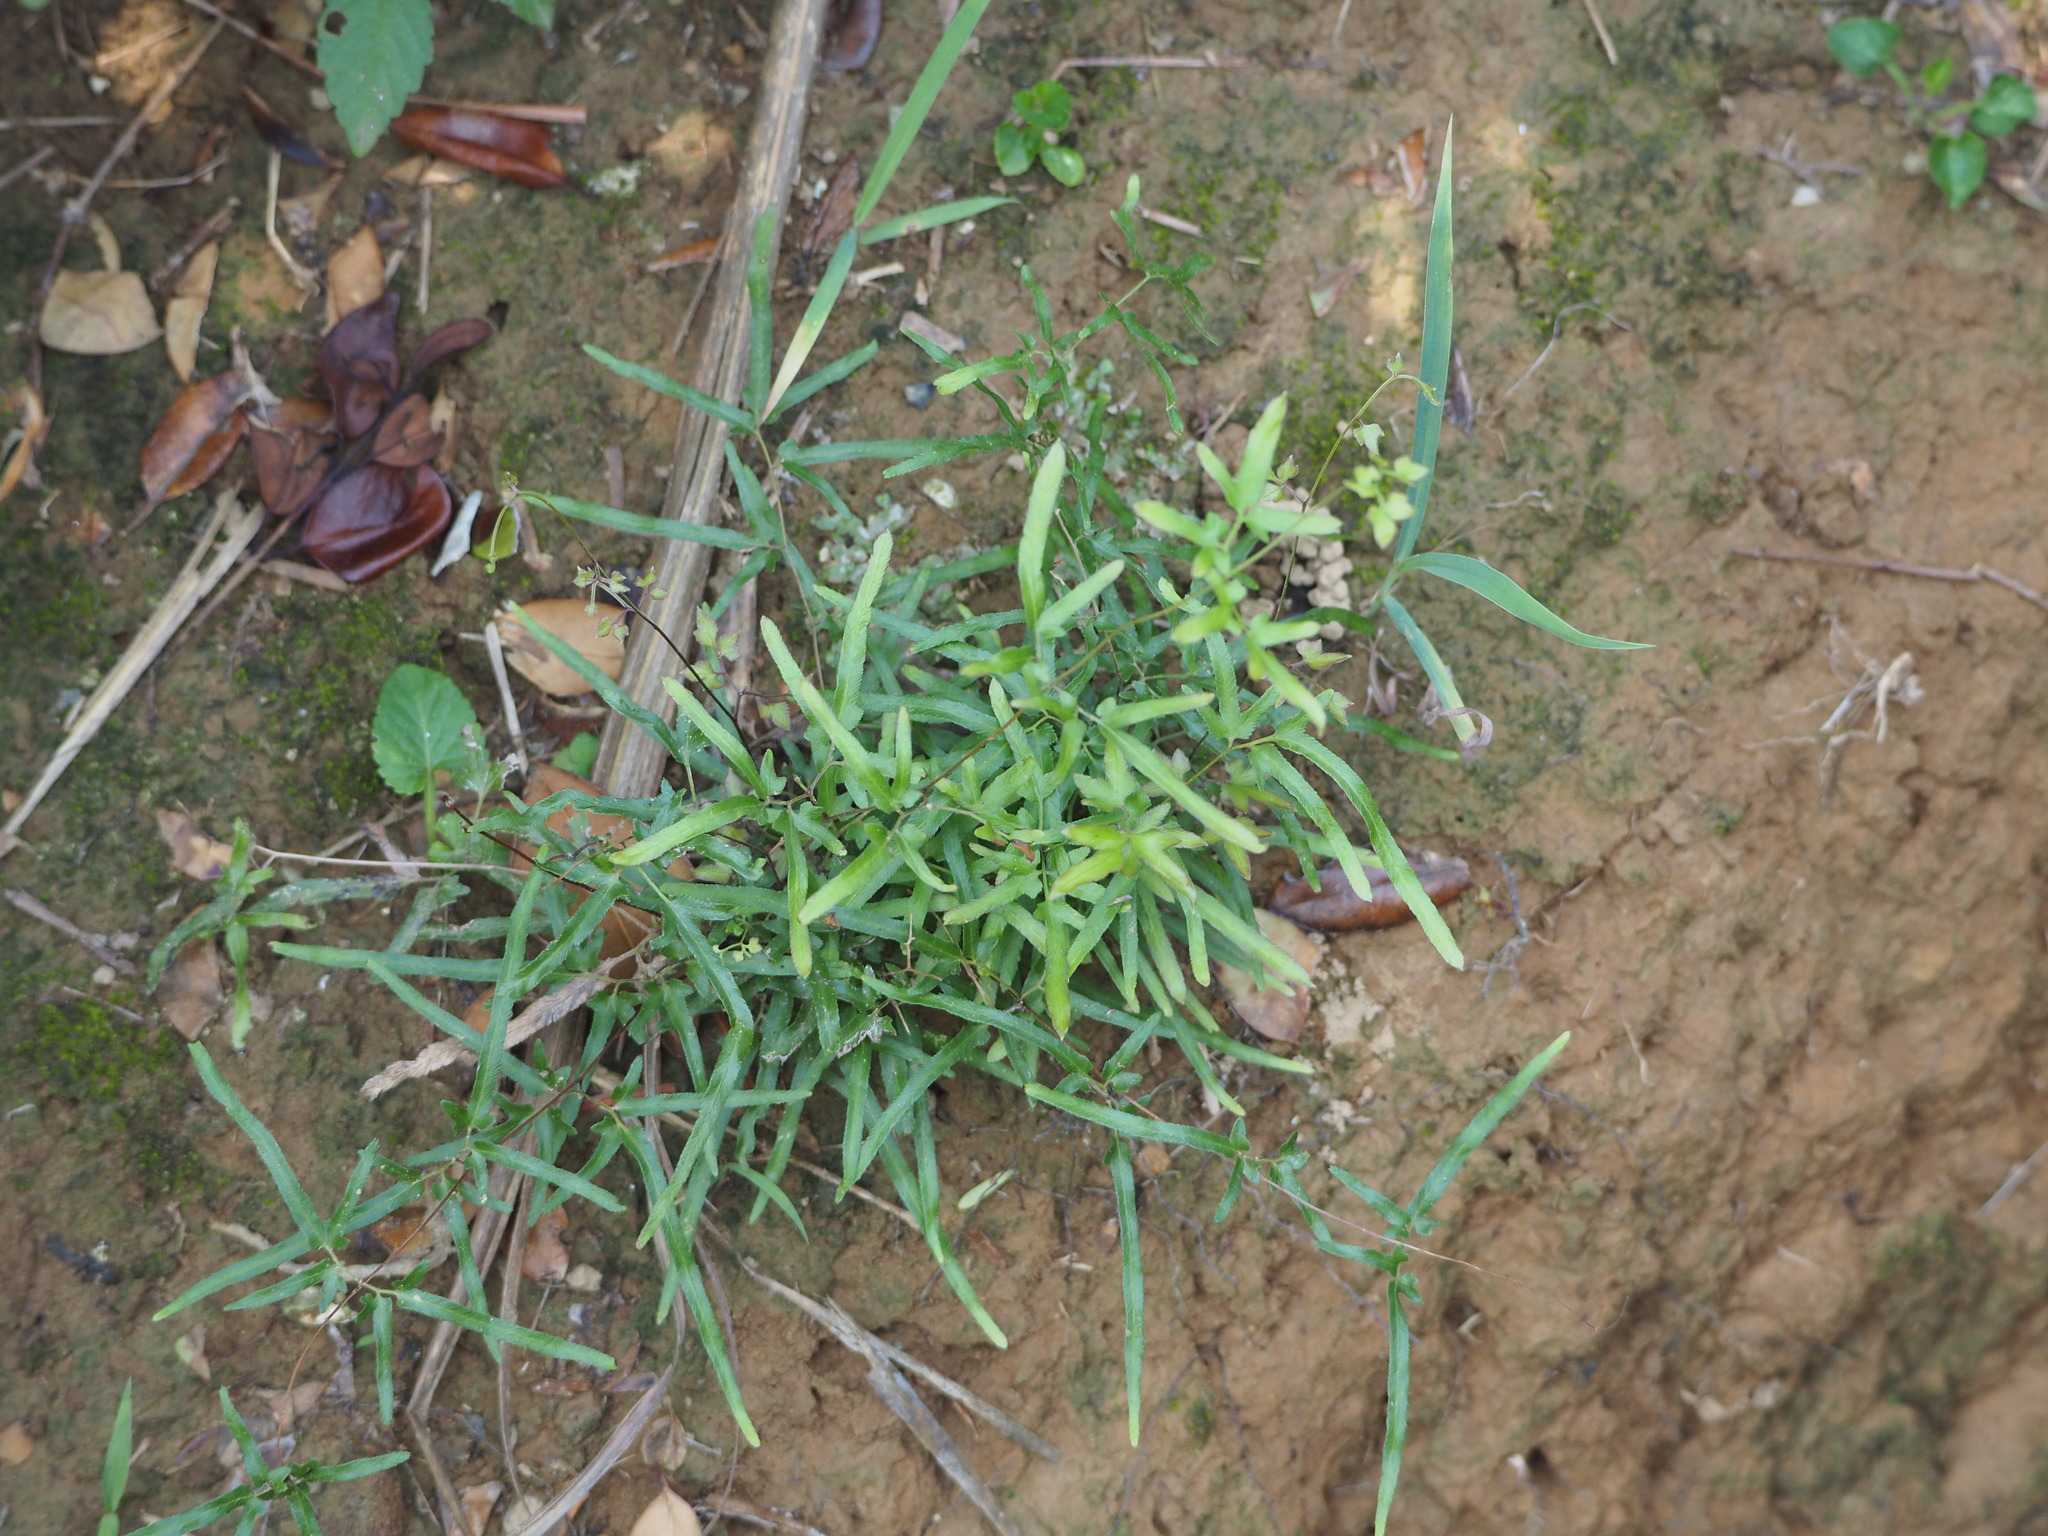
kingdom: Plantae
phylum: Tracheophyta
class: Polypodiopsida
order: Schizaeales
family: Lygodiaceae
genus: Lygodium
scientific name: Lygodium japonicum
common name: Japanese climbing fern
